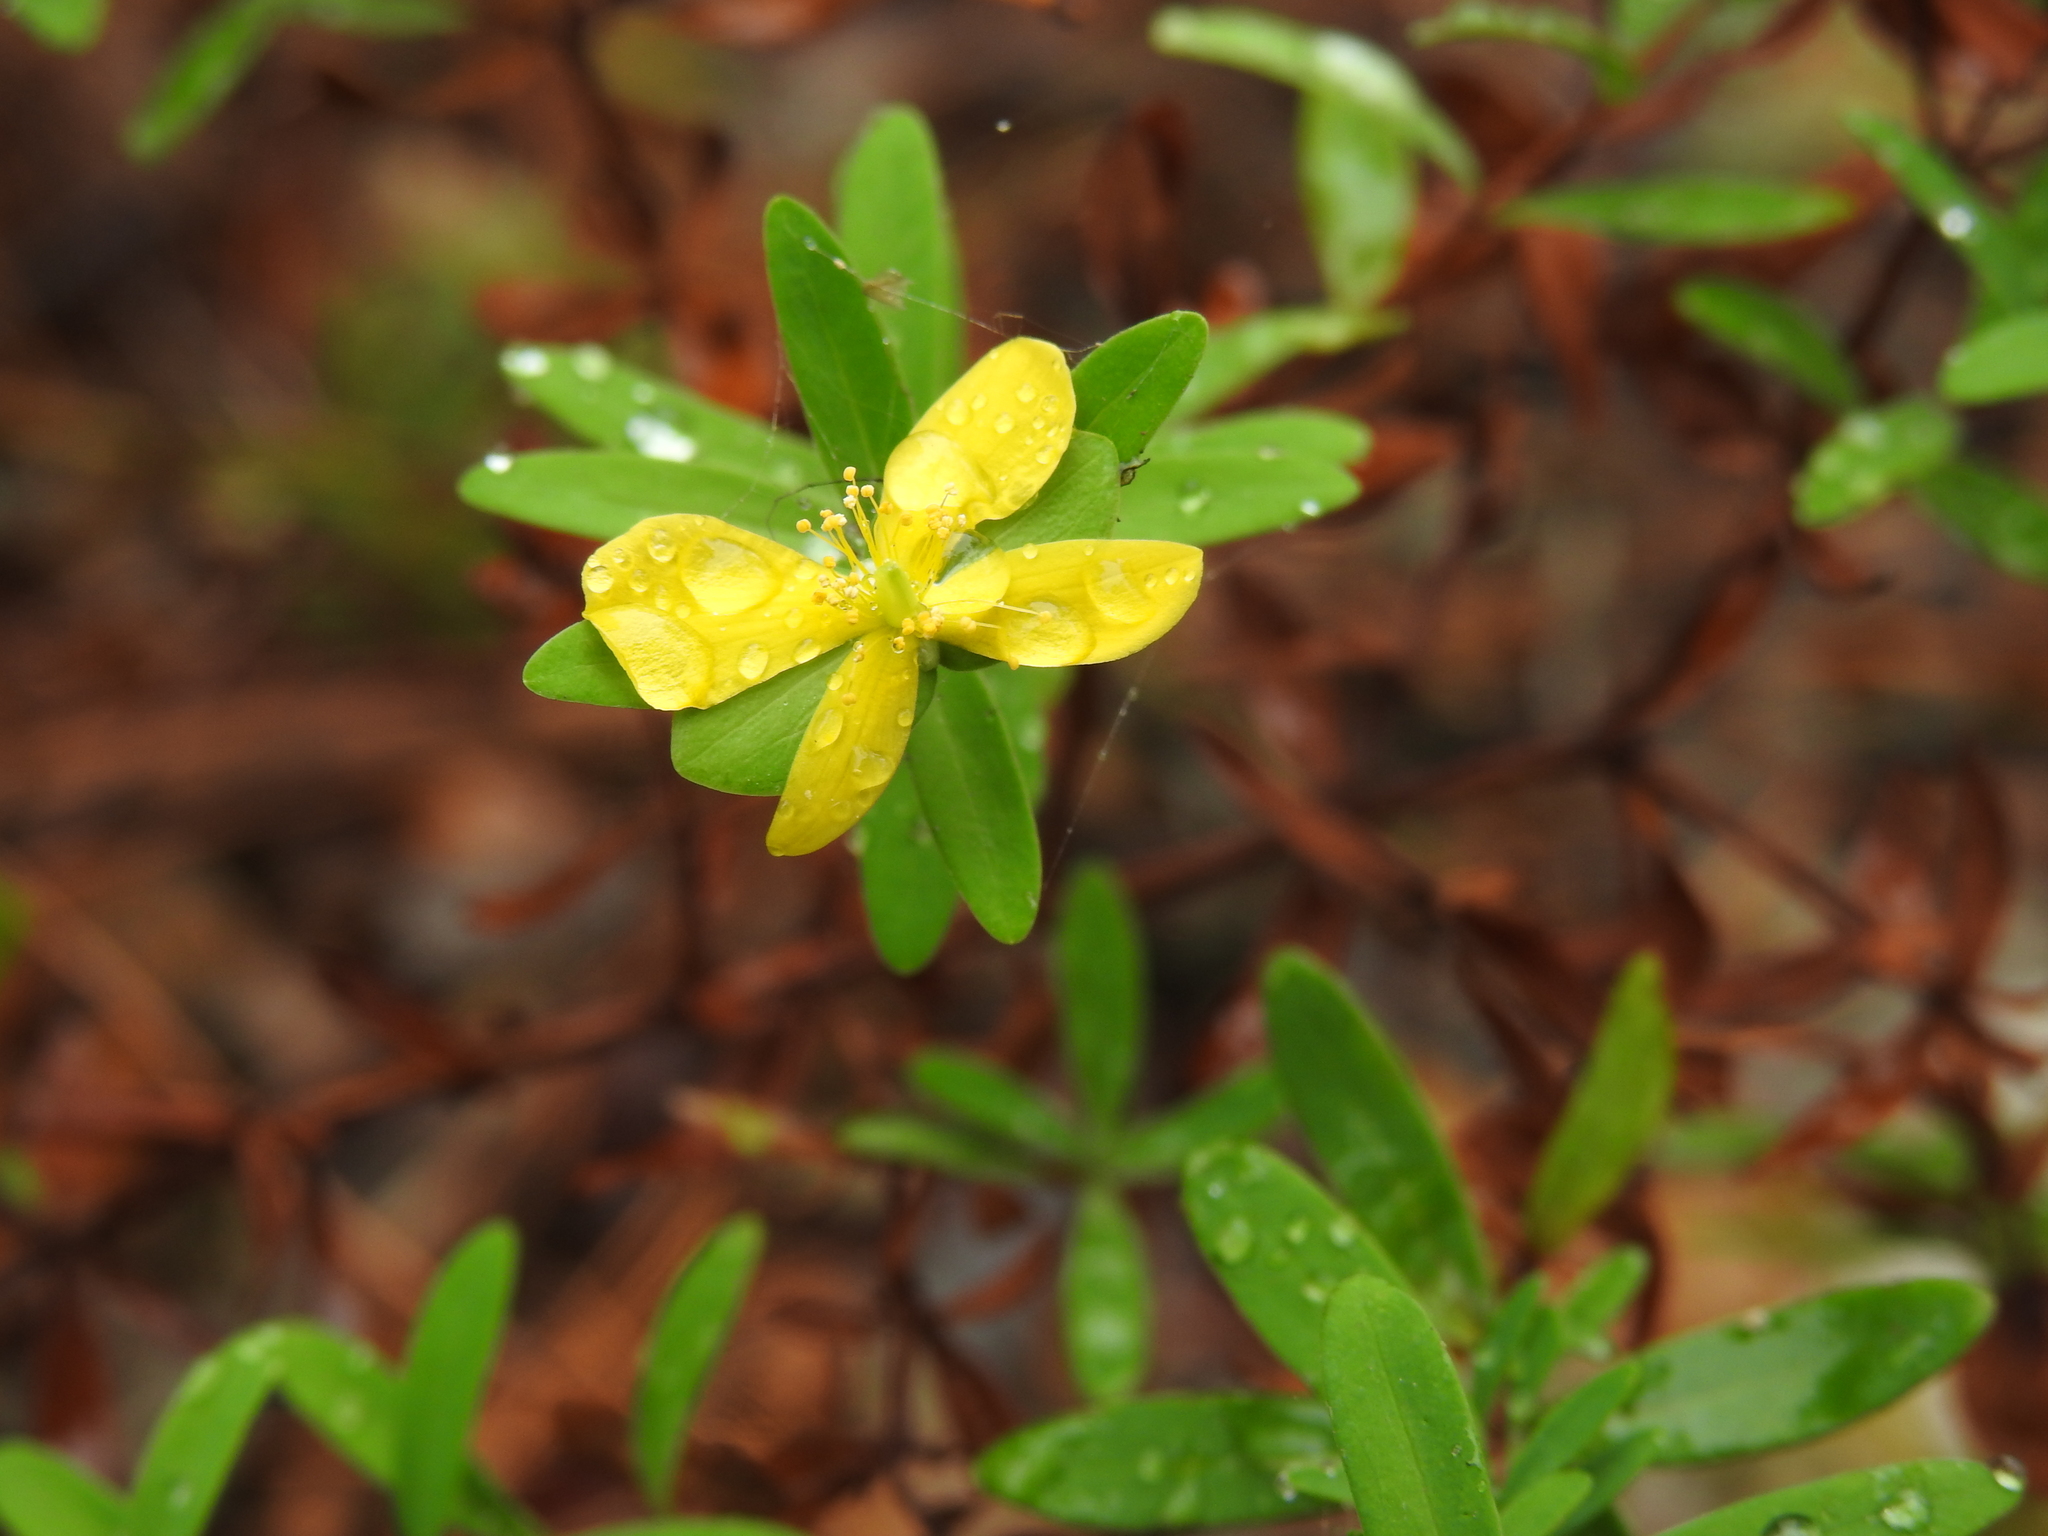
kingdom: Plantae
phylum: Tracheophyta
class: Magnoliopsida
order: Malpighiales
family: Hypericaceae
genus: Hypericum
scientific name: Hypericum hypericoides
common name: St. andrew's cross
